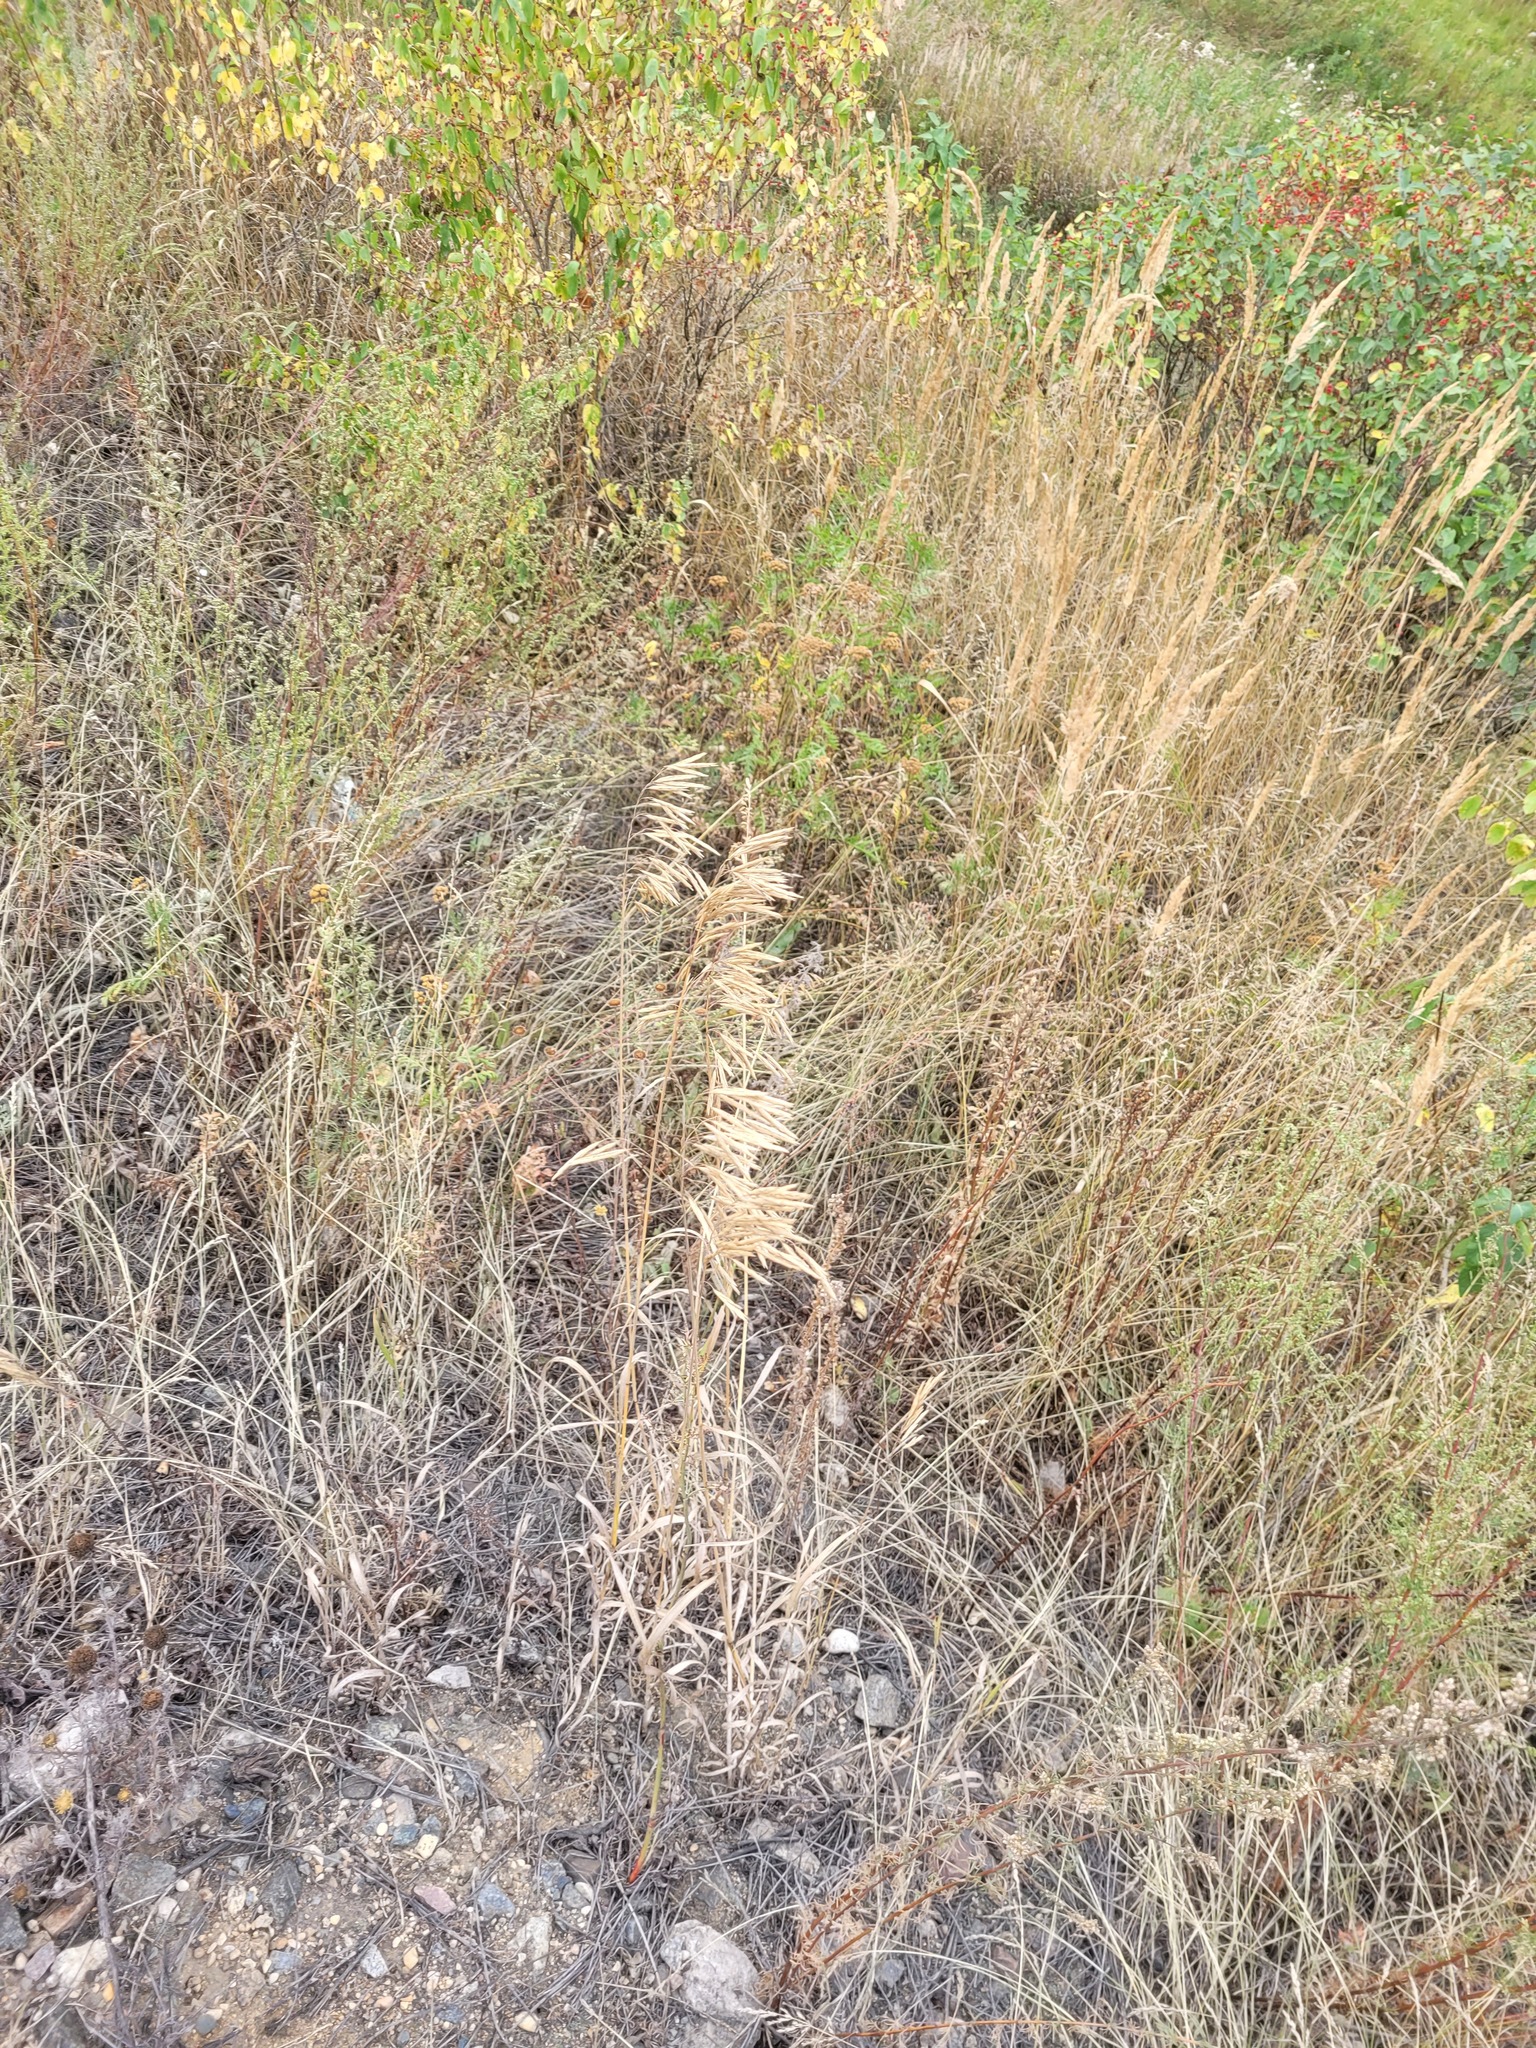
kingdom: Plantae
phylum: Tracheophyta
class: Liliopsida
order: Poales
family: Poaceae
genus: Bromus
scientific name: Bromus inermis
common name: Smooth brome
